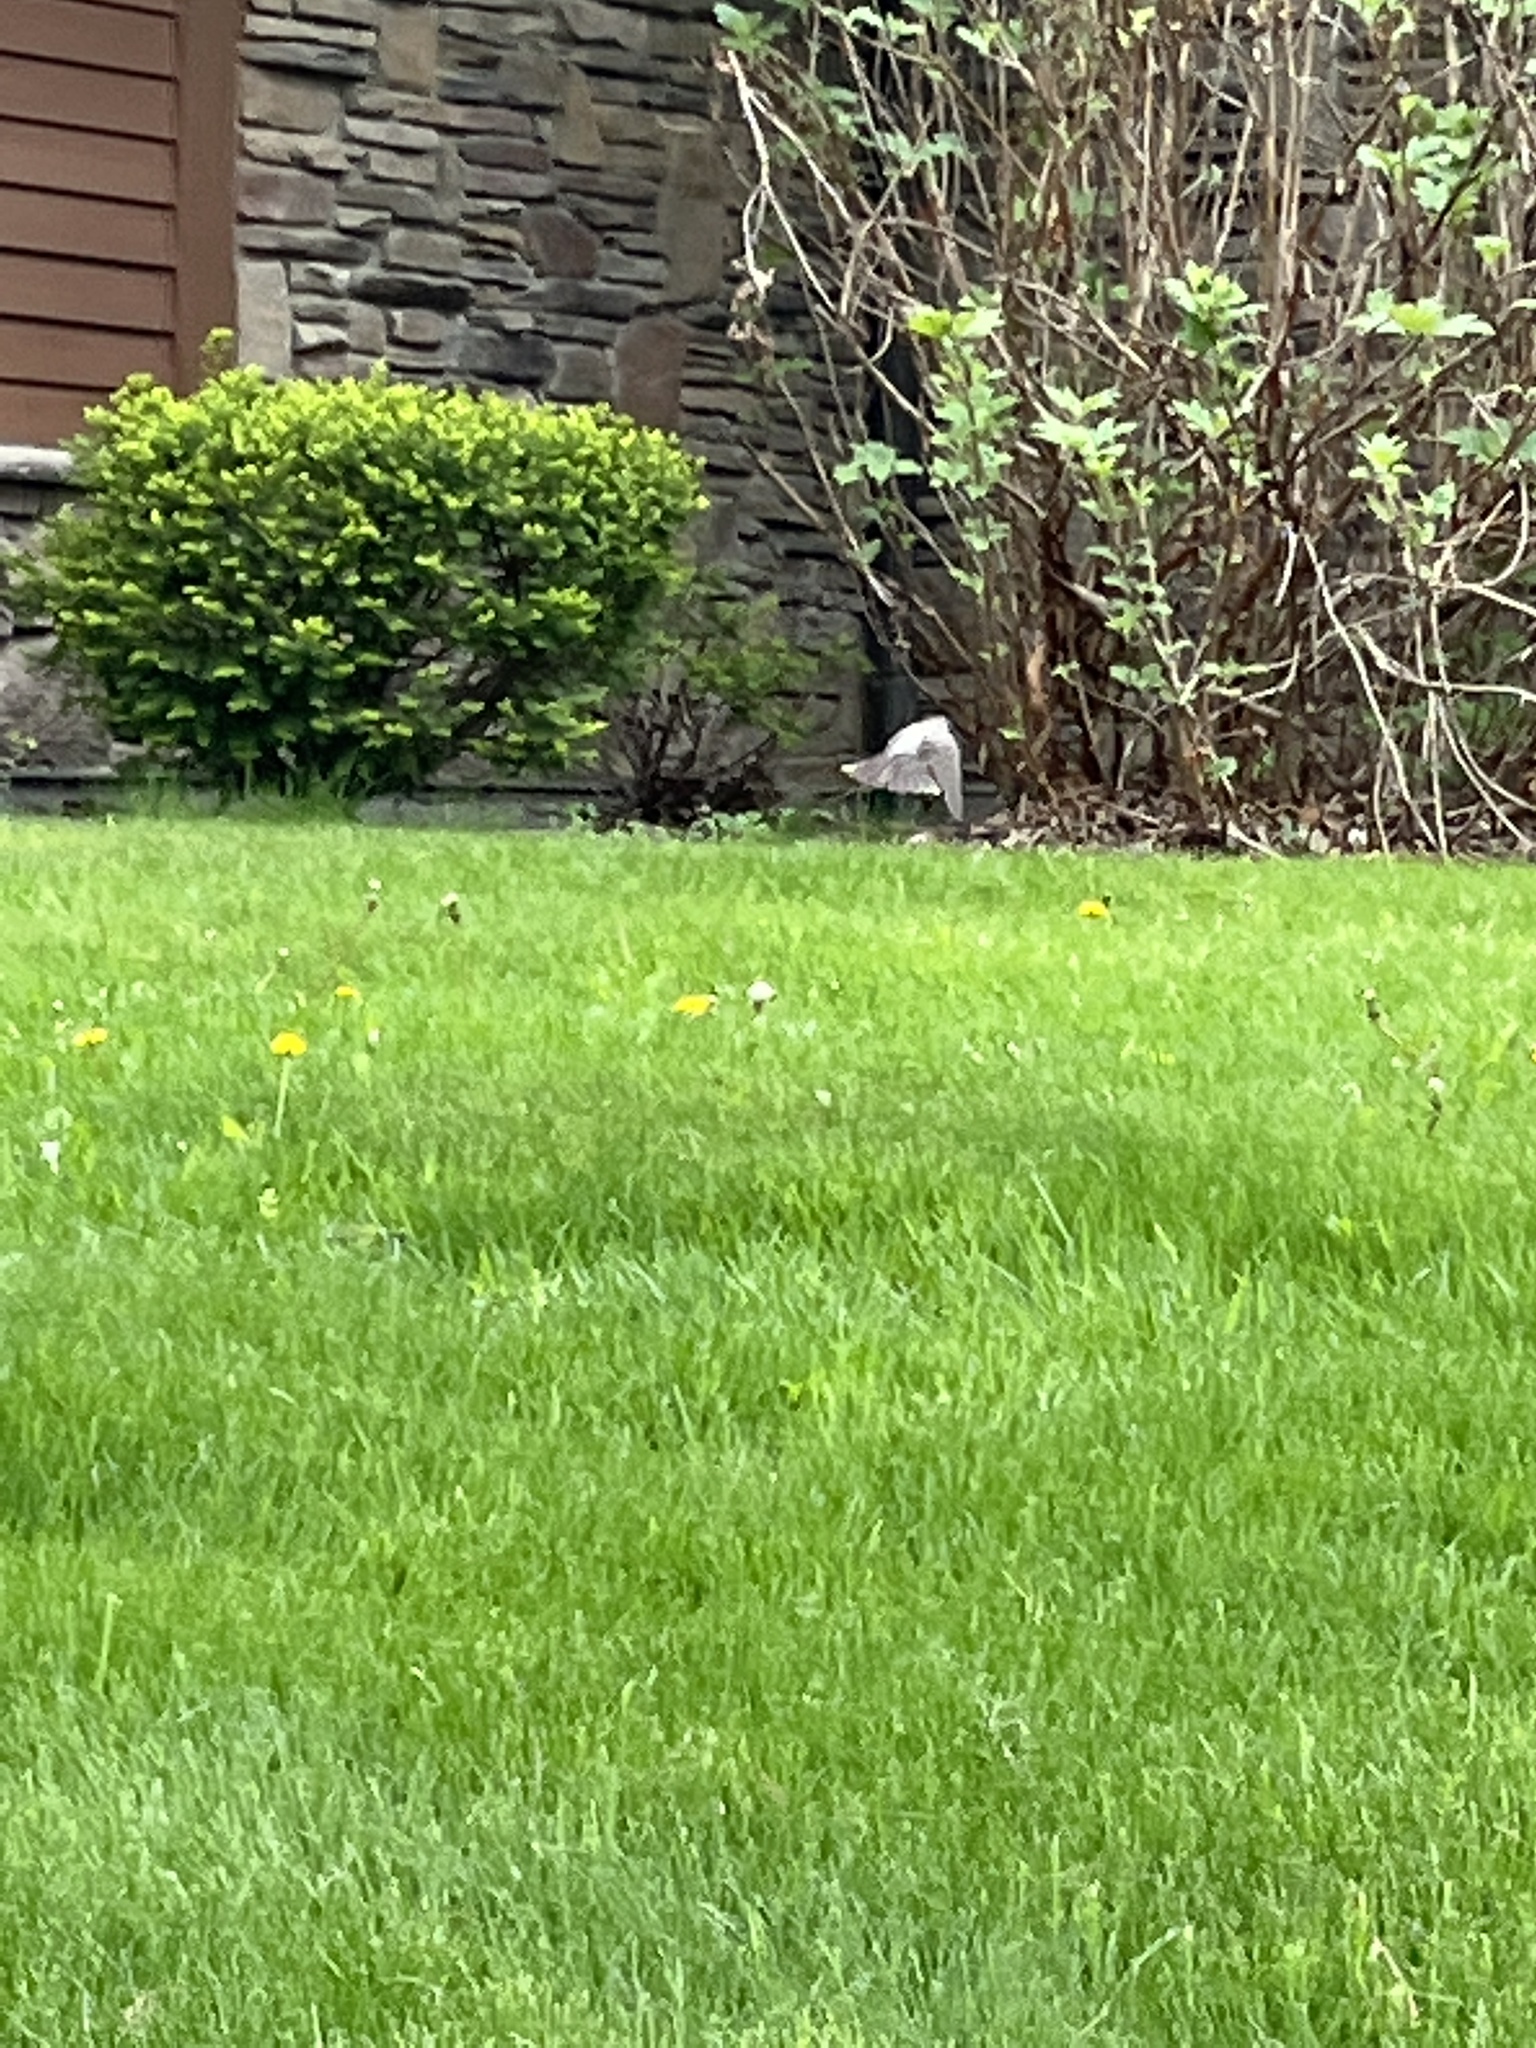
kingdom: Animalia
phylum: Chordata
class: Aves
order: Passeriformes
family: Turdidae
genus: Turdus
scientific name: Turdus migratorius
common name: American robin
